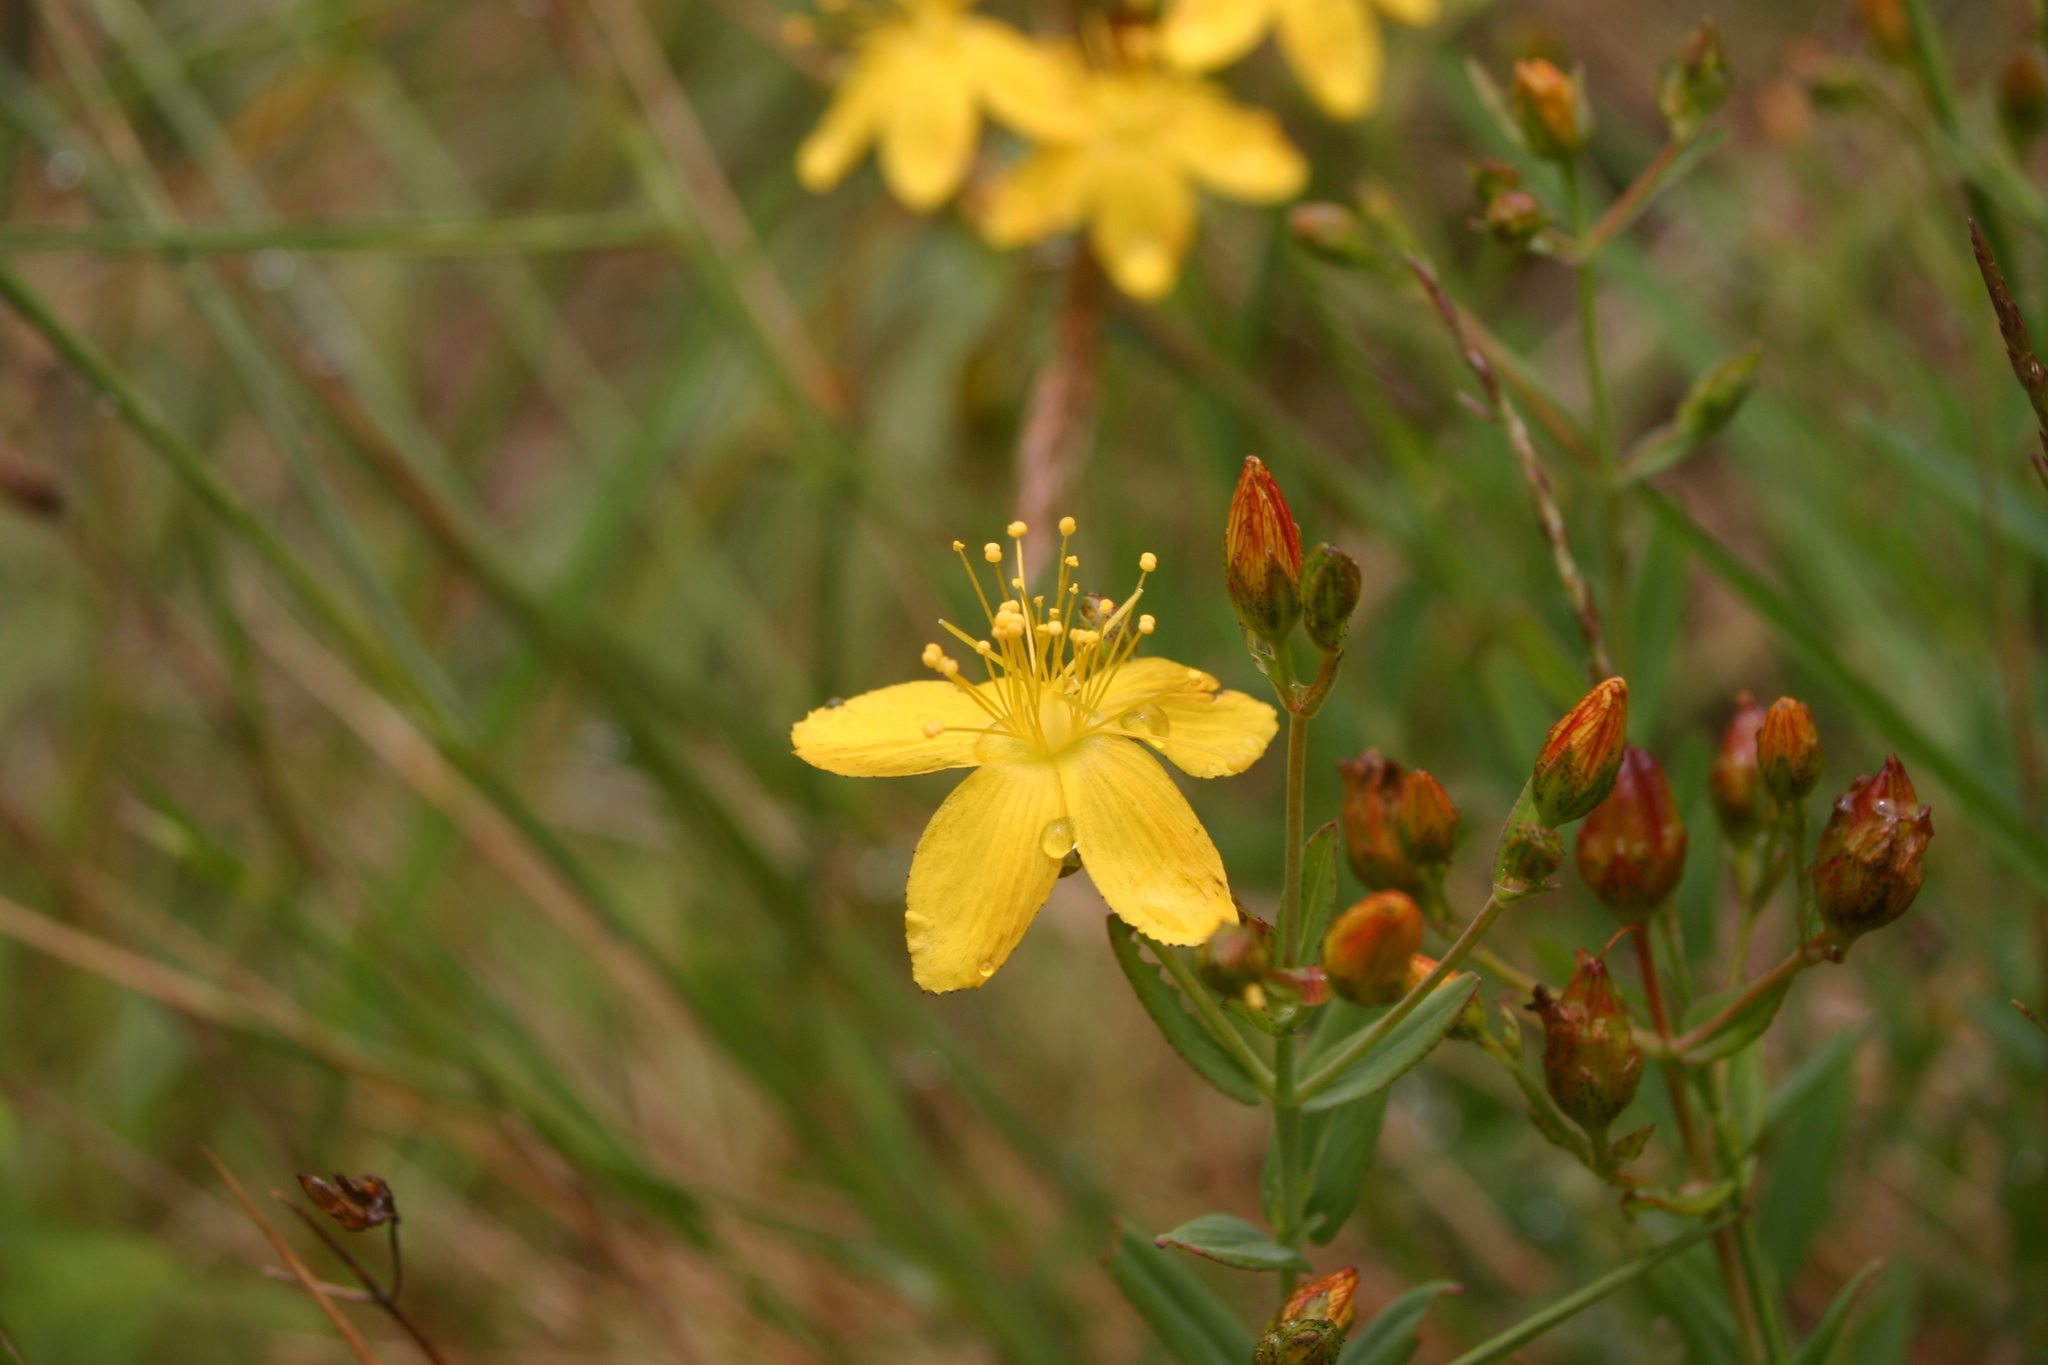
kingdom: Plantae
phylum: Tracheophyta
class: Magnoliopsida
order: Malpighiales
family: Hypericaceae
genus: Hypericum
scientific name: Hypericum linariifolium
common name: Toadflax-leaved st. john's-wort
